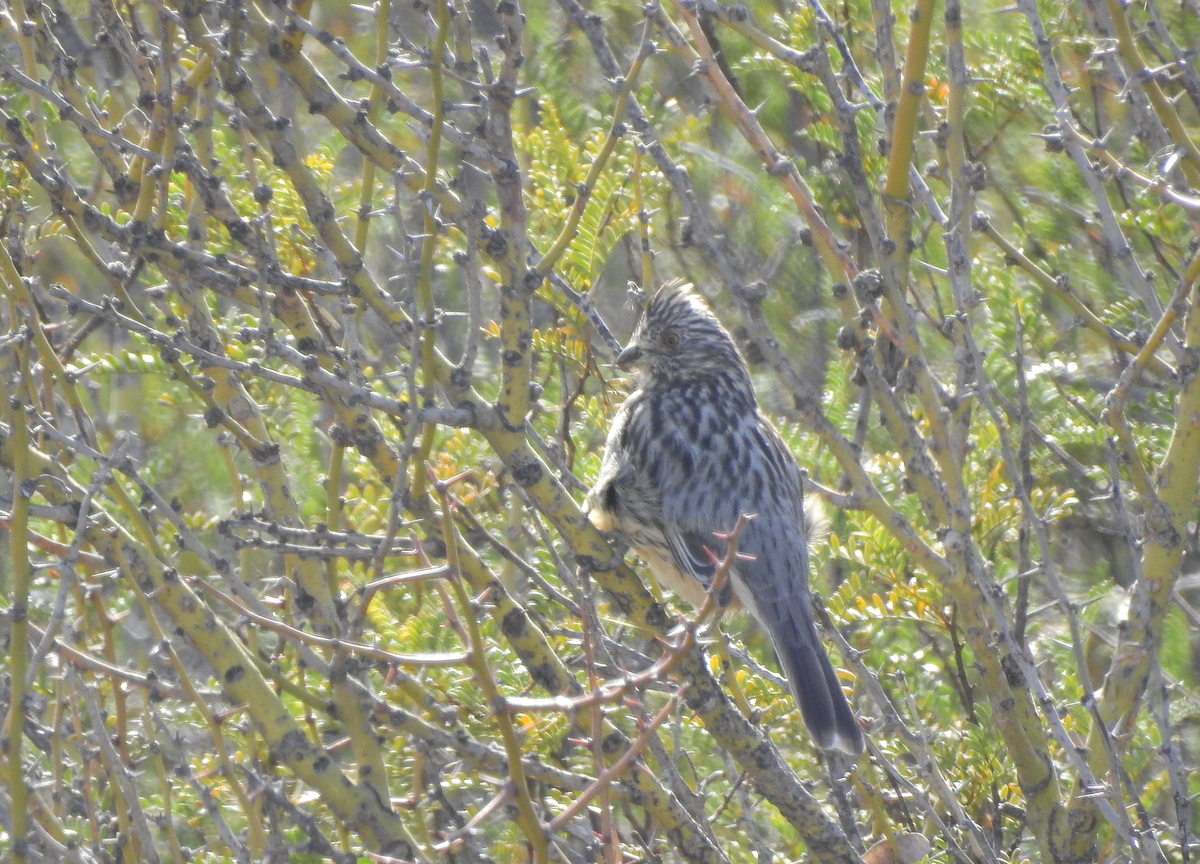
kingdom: Animalia
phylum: Chordata
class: Aves
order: Passeriformes
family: Cotingidae
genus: Phytotoma
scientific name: Phytotoma rutila
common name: White-tipped plantcutter
